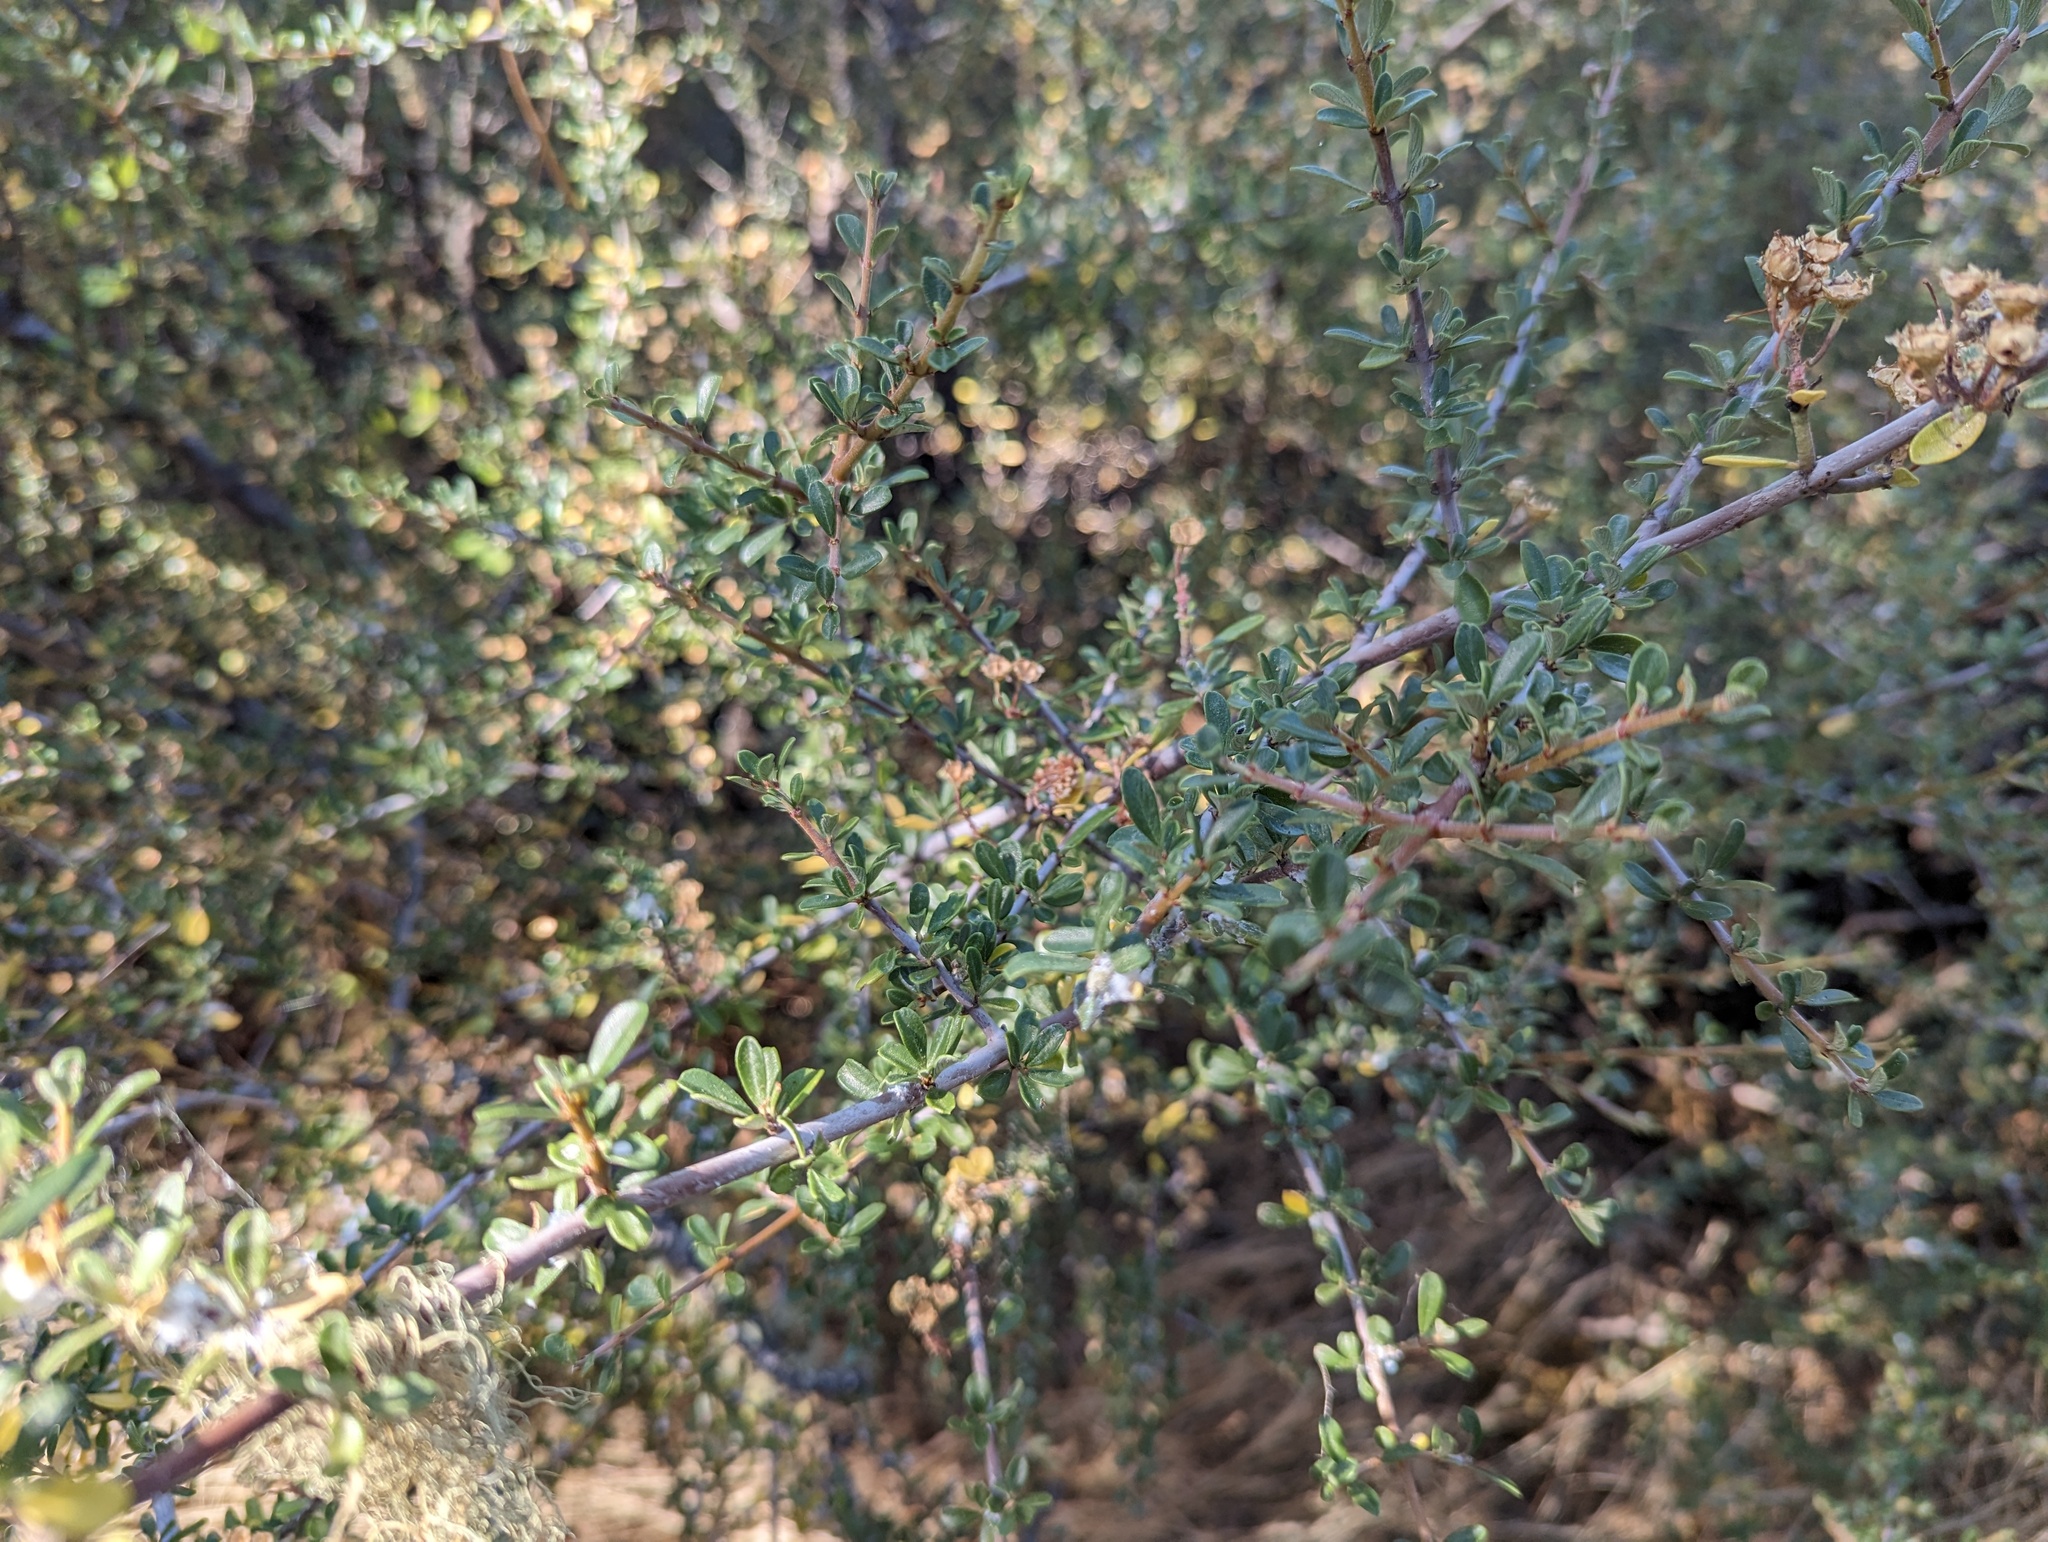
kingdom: Plantae
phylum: Tracheophyta
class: Magnoliopsida
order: Rosales
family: Rhamnaceae
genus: Ceanothus
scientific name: Ceanothus cuneatus
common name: Cuneate ceanothus
